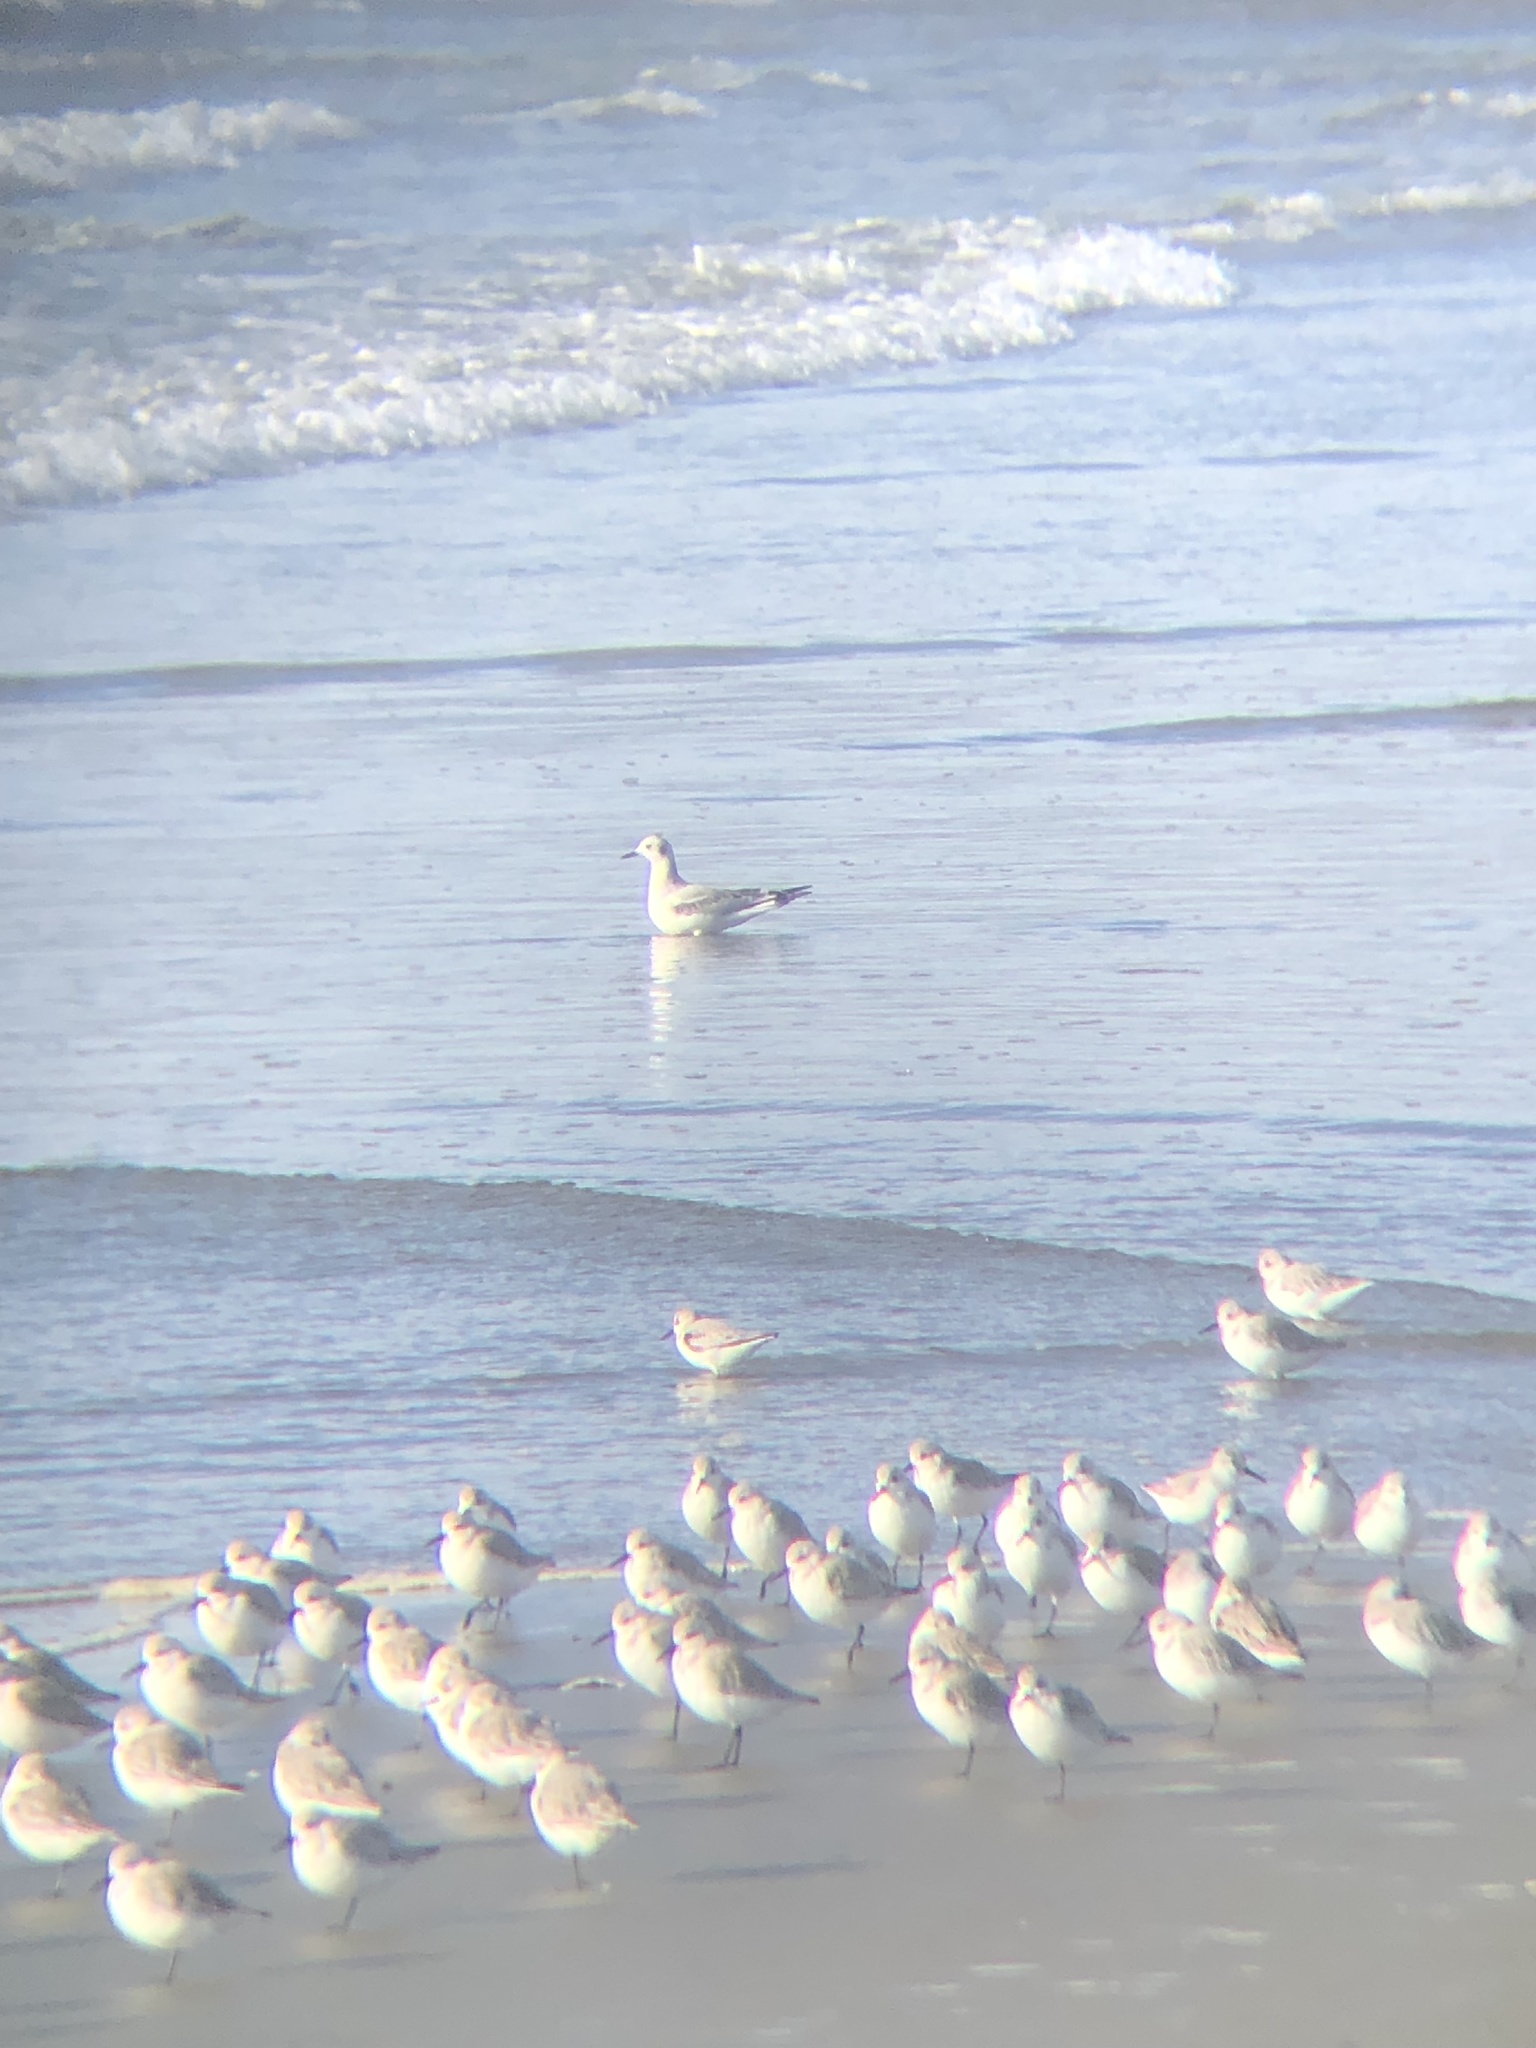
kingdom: Animalia
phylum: Chordata
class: Aves
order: Charadriiformes
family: Scolopacidae
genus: Calidris
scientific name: Calidris alba
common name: Sanderling
